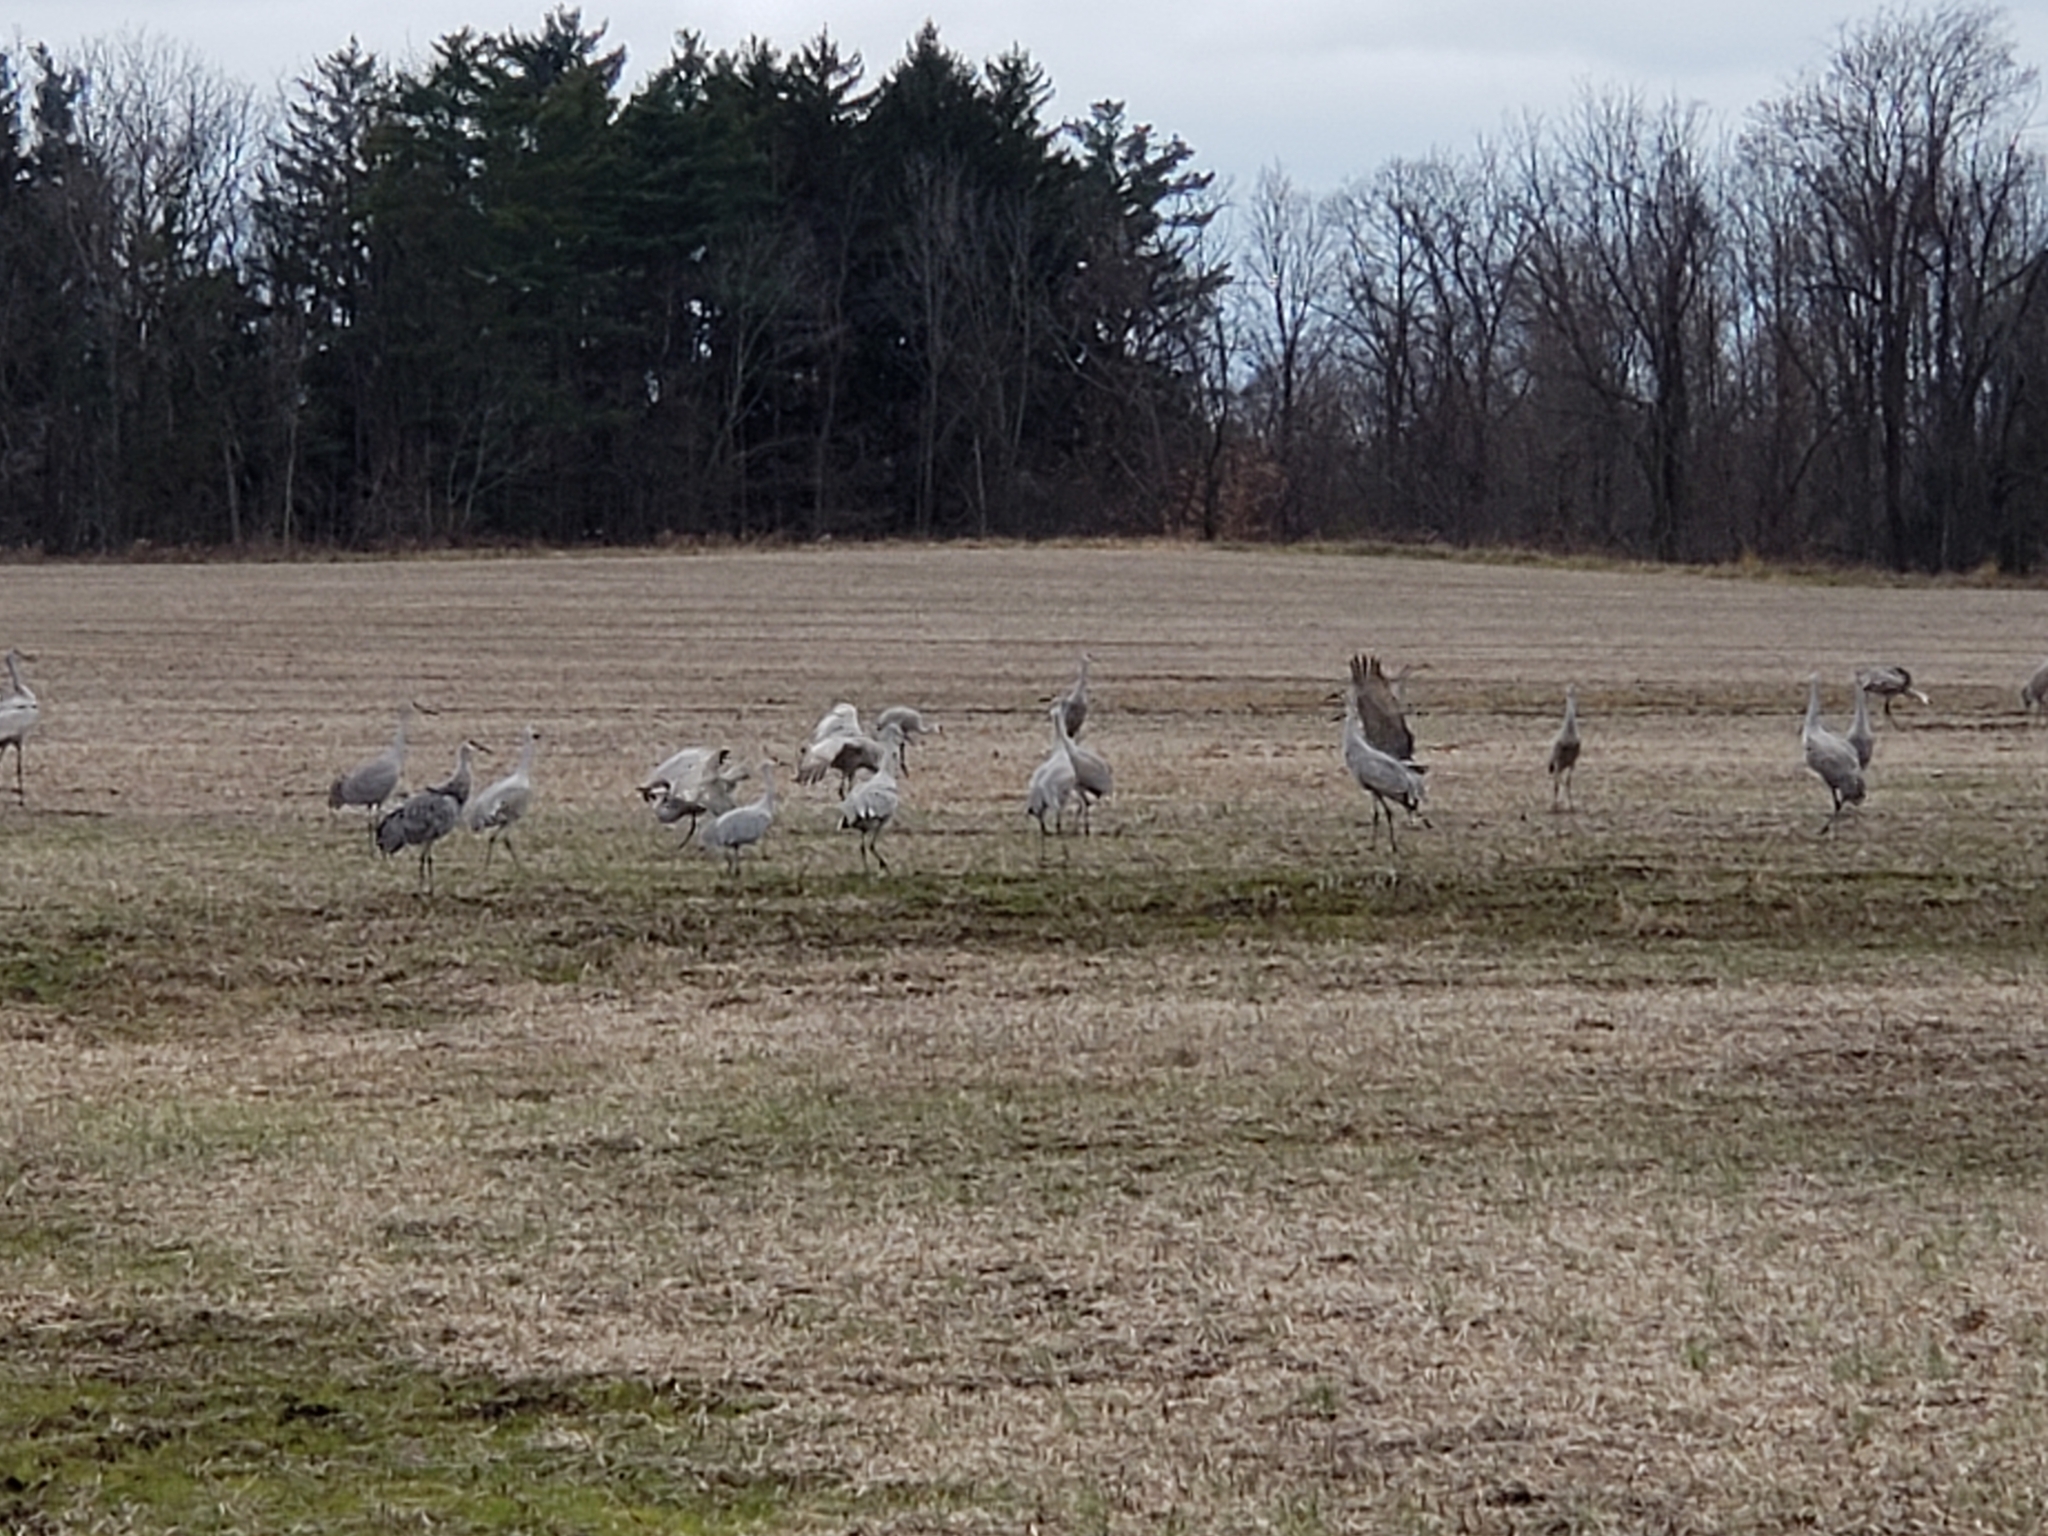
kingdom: Animalia
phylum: Chordata
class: Aves
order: Gruiformes
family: Gruidae
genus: Grus
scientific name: Grus canadensis
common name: Sandhill crane
